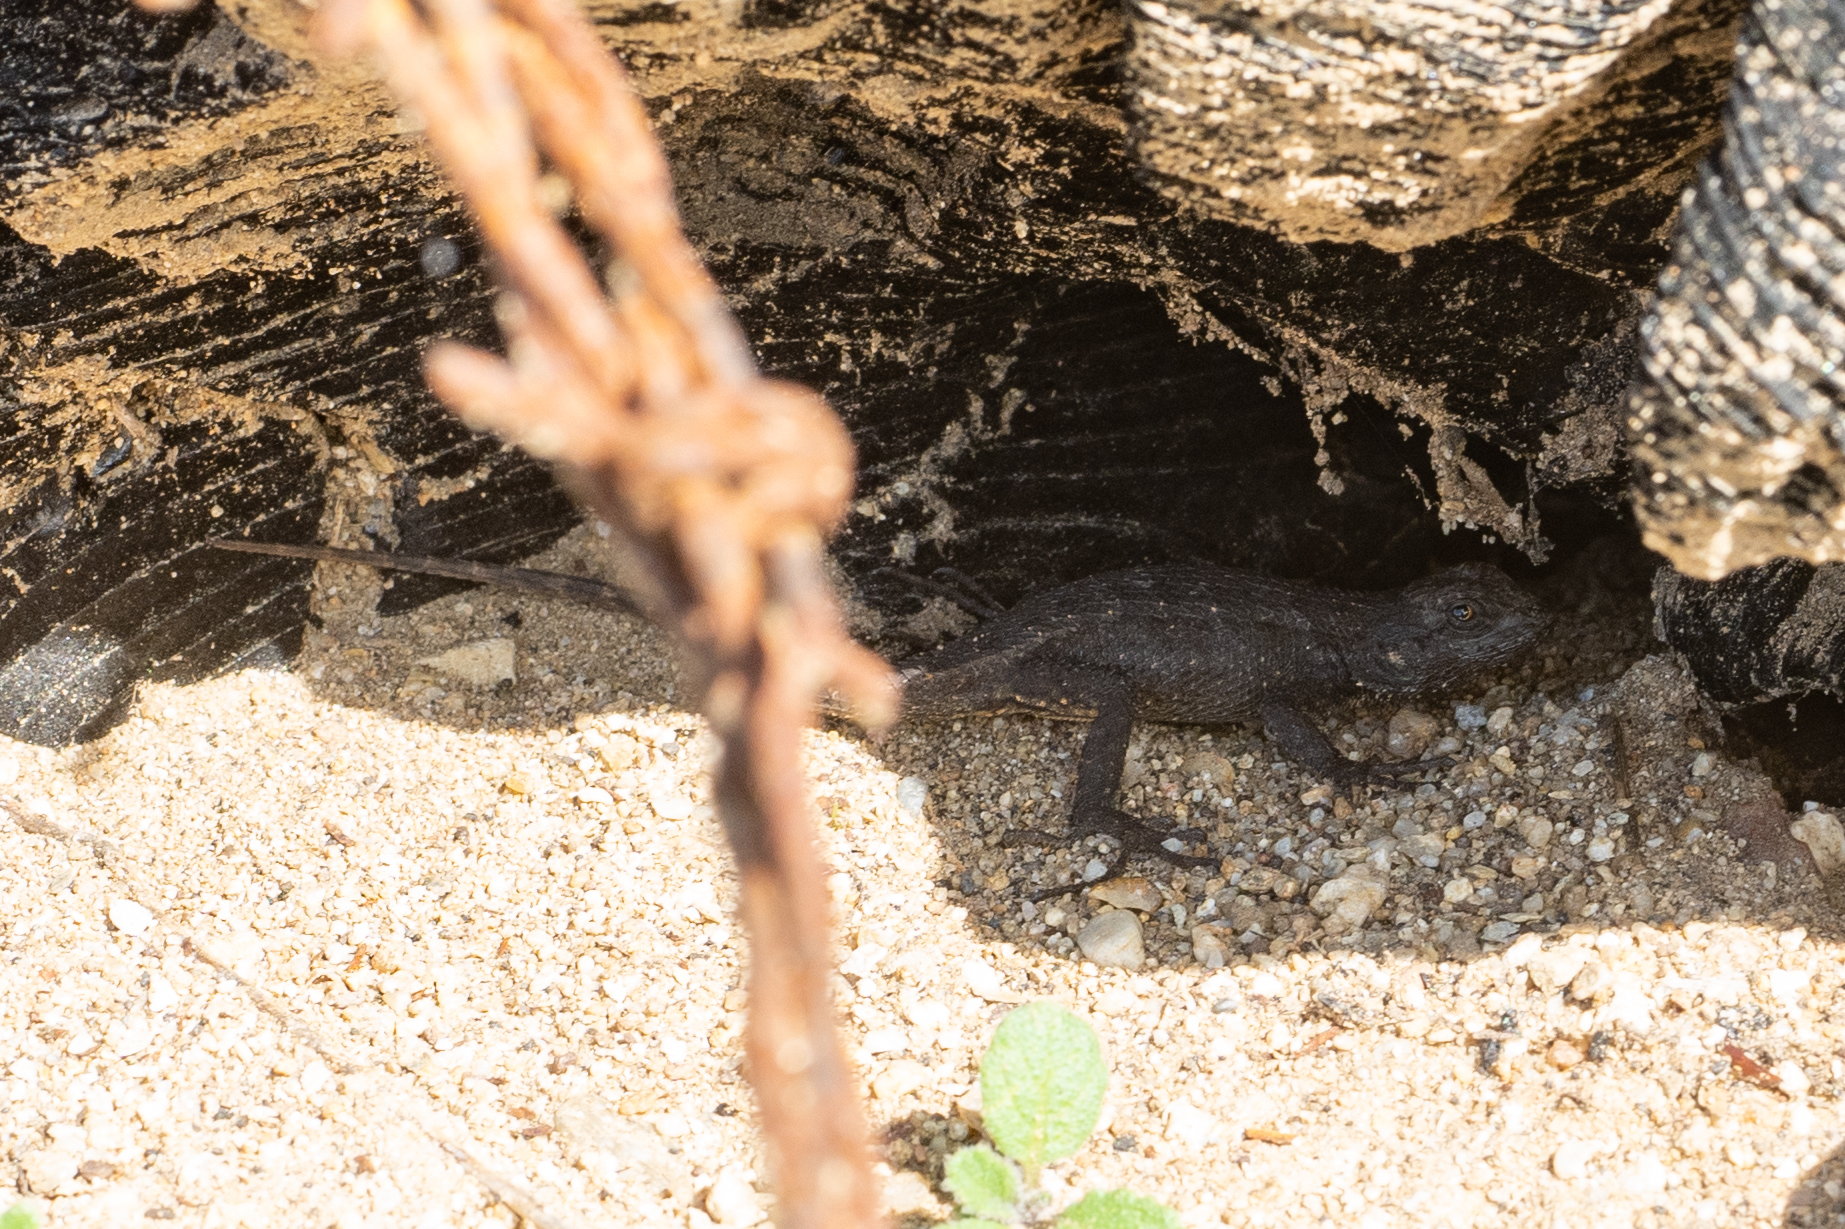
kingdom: Animalia
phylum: Chordata
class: Squamata
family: Phrynosomatidae
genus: Sceloporus
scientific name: Sceloporus occidentalis
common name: Western fence lizard
